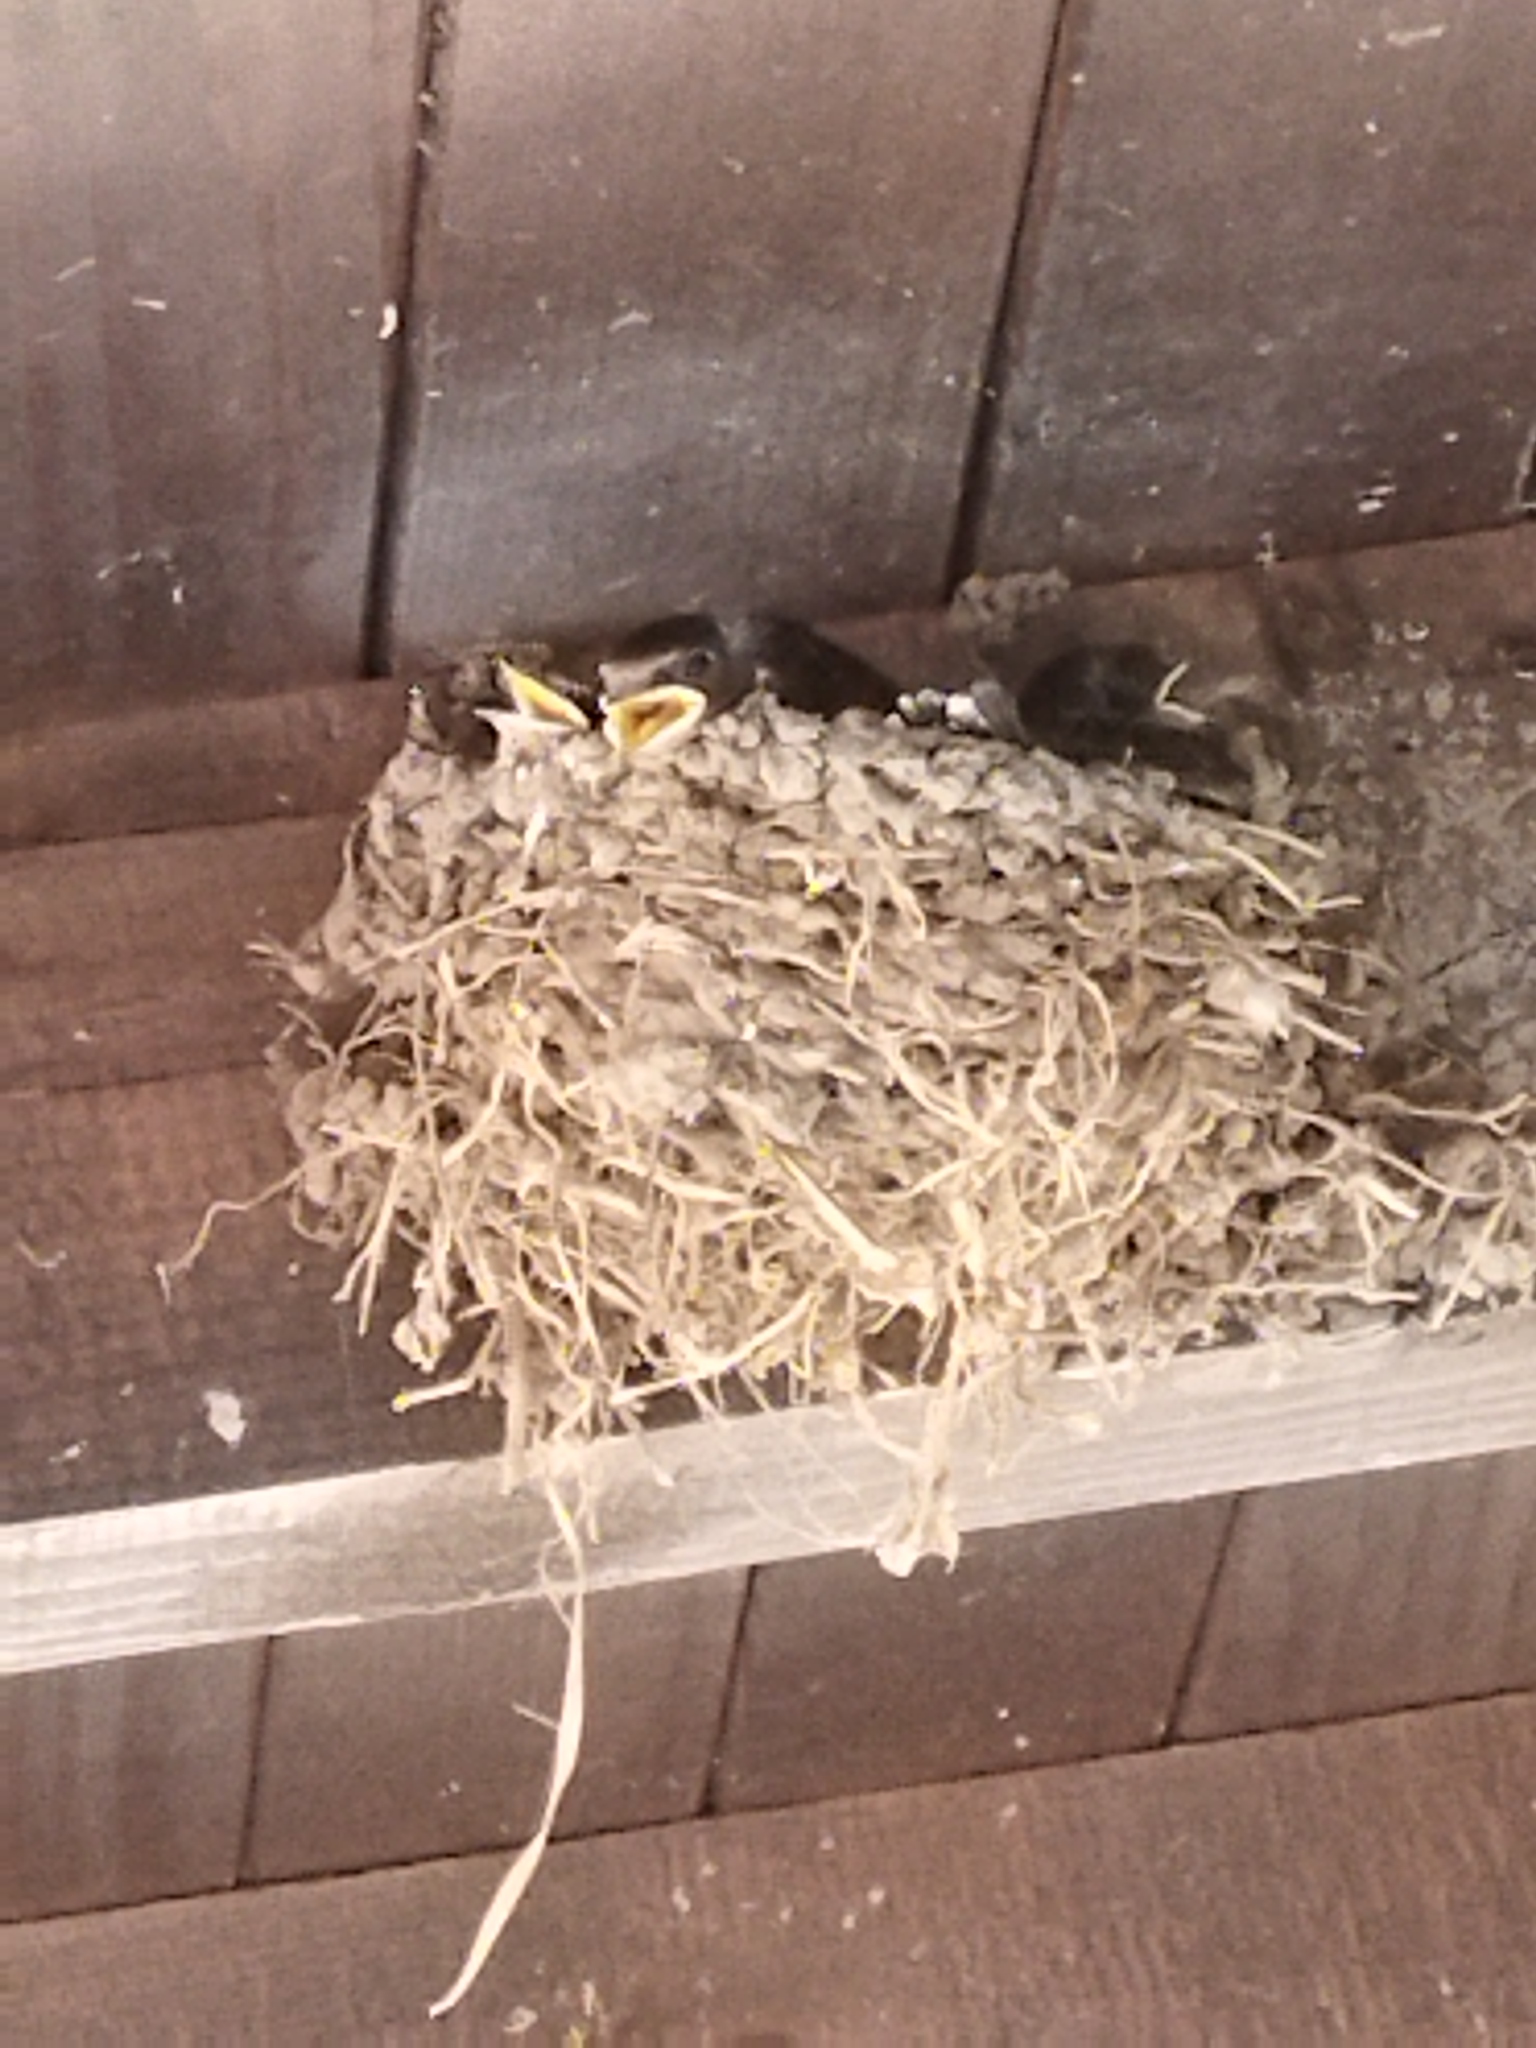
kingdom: Animalia
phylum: Chordata
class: Aves
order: Passeriformes
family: Hirundinidae
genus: Hirundo
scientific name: Hirundo rustica
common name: Barn swallow
